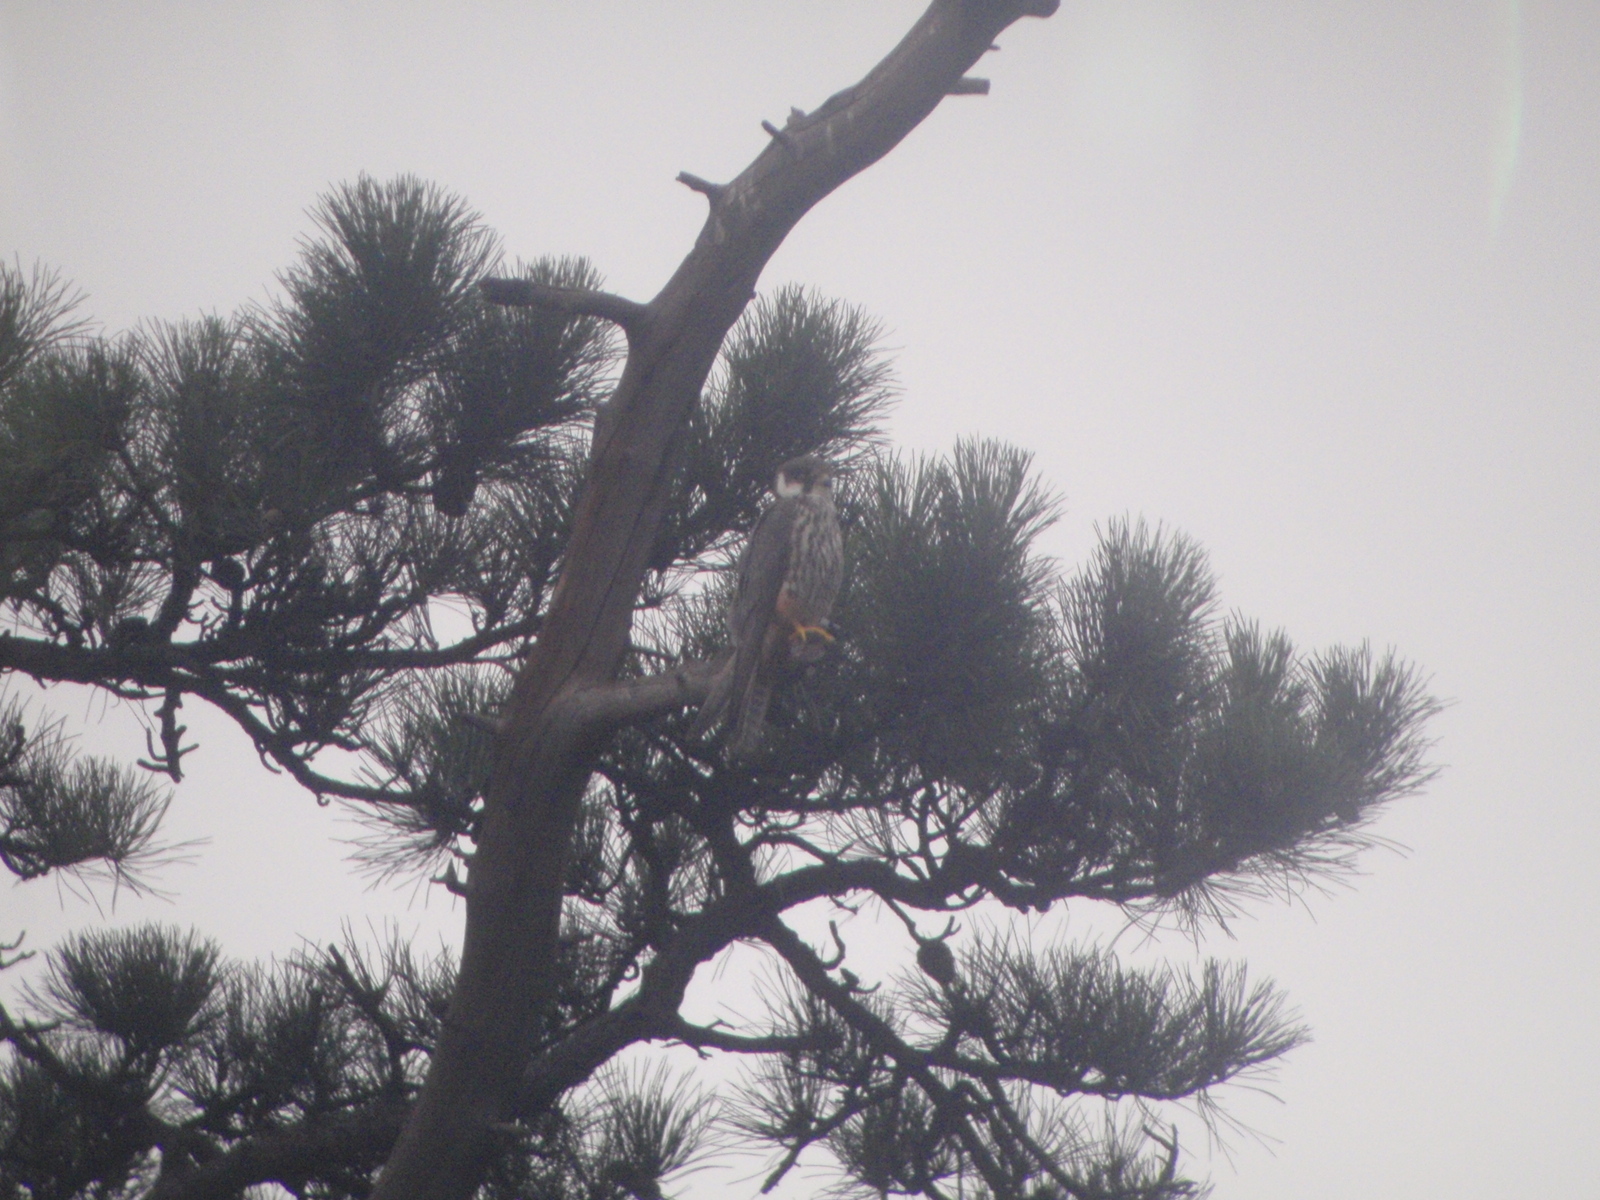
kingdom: Animalia
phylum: Chordata
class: Aves
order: Falconiformes
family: Falconidae
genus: Falco
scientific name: Falco subbuteo
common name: Eurasian hobby
